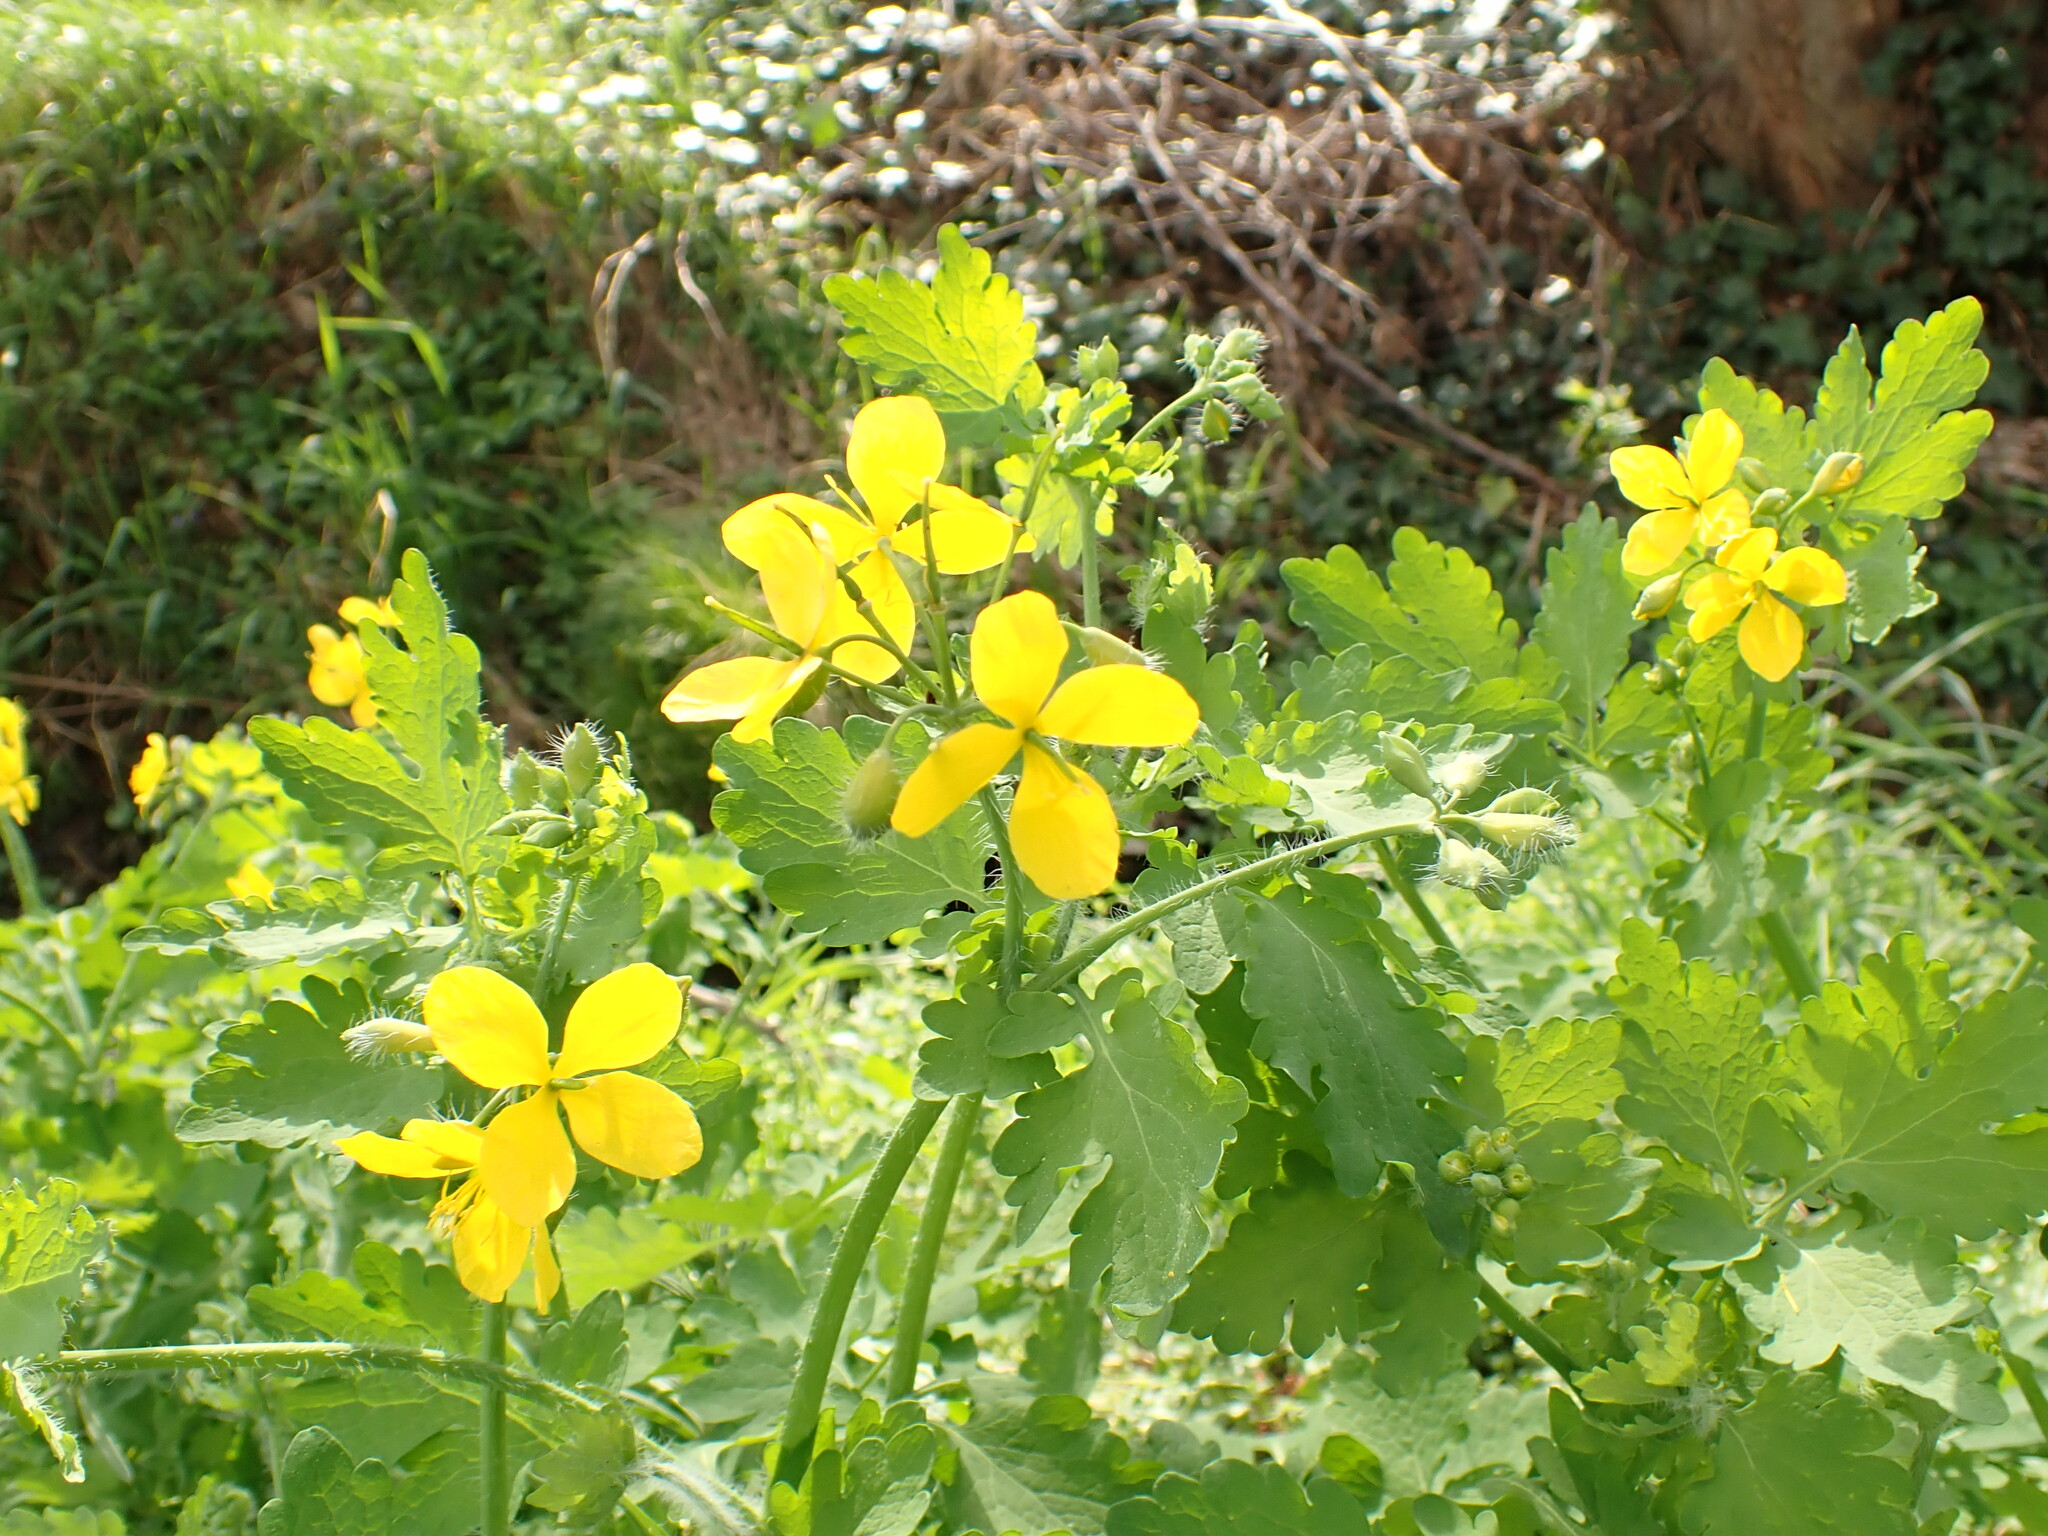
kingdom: Plantae
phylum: Tracheophyta
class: Magnoliopsida
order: Ranunculales
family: Papaveraceae
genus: Chelidonium
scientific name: Chelidonium majus
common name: Greater celandine
